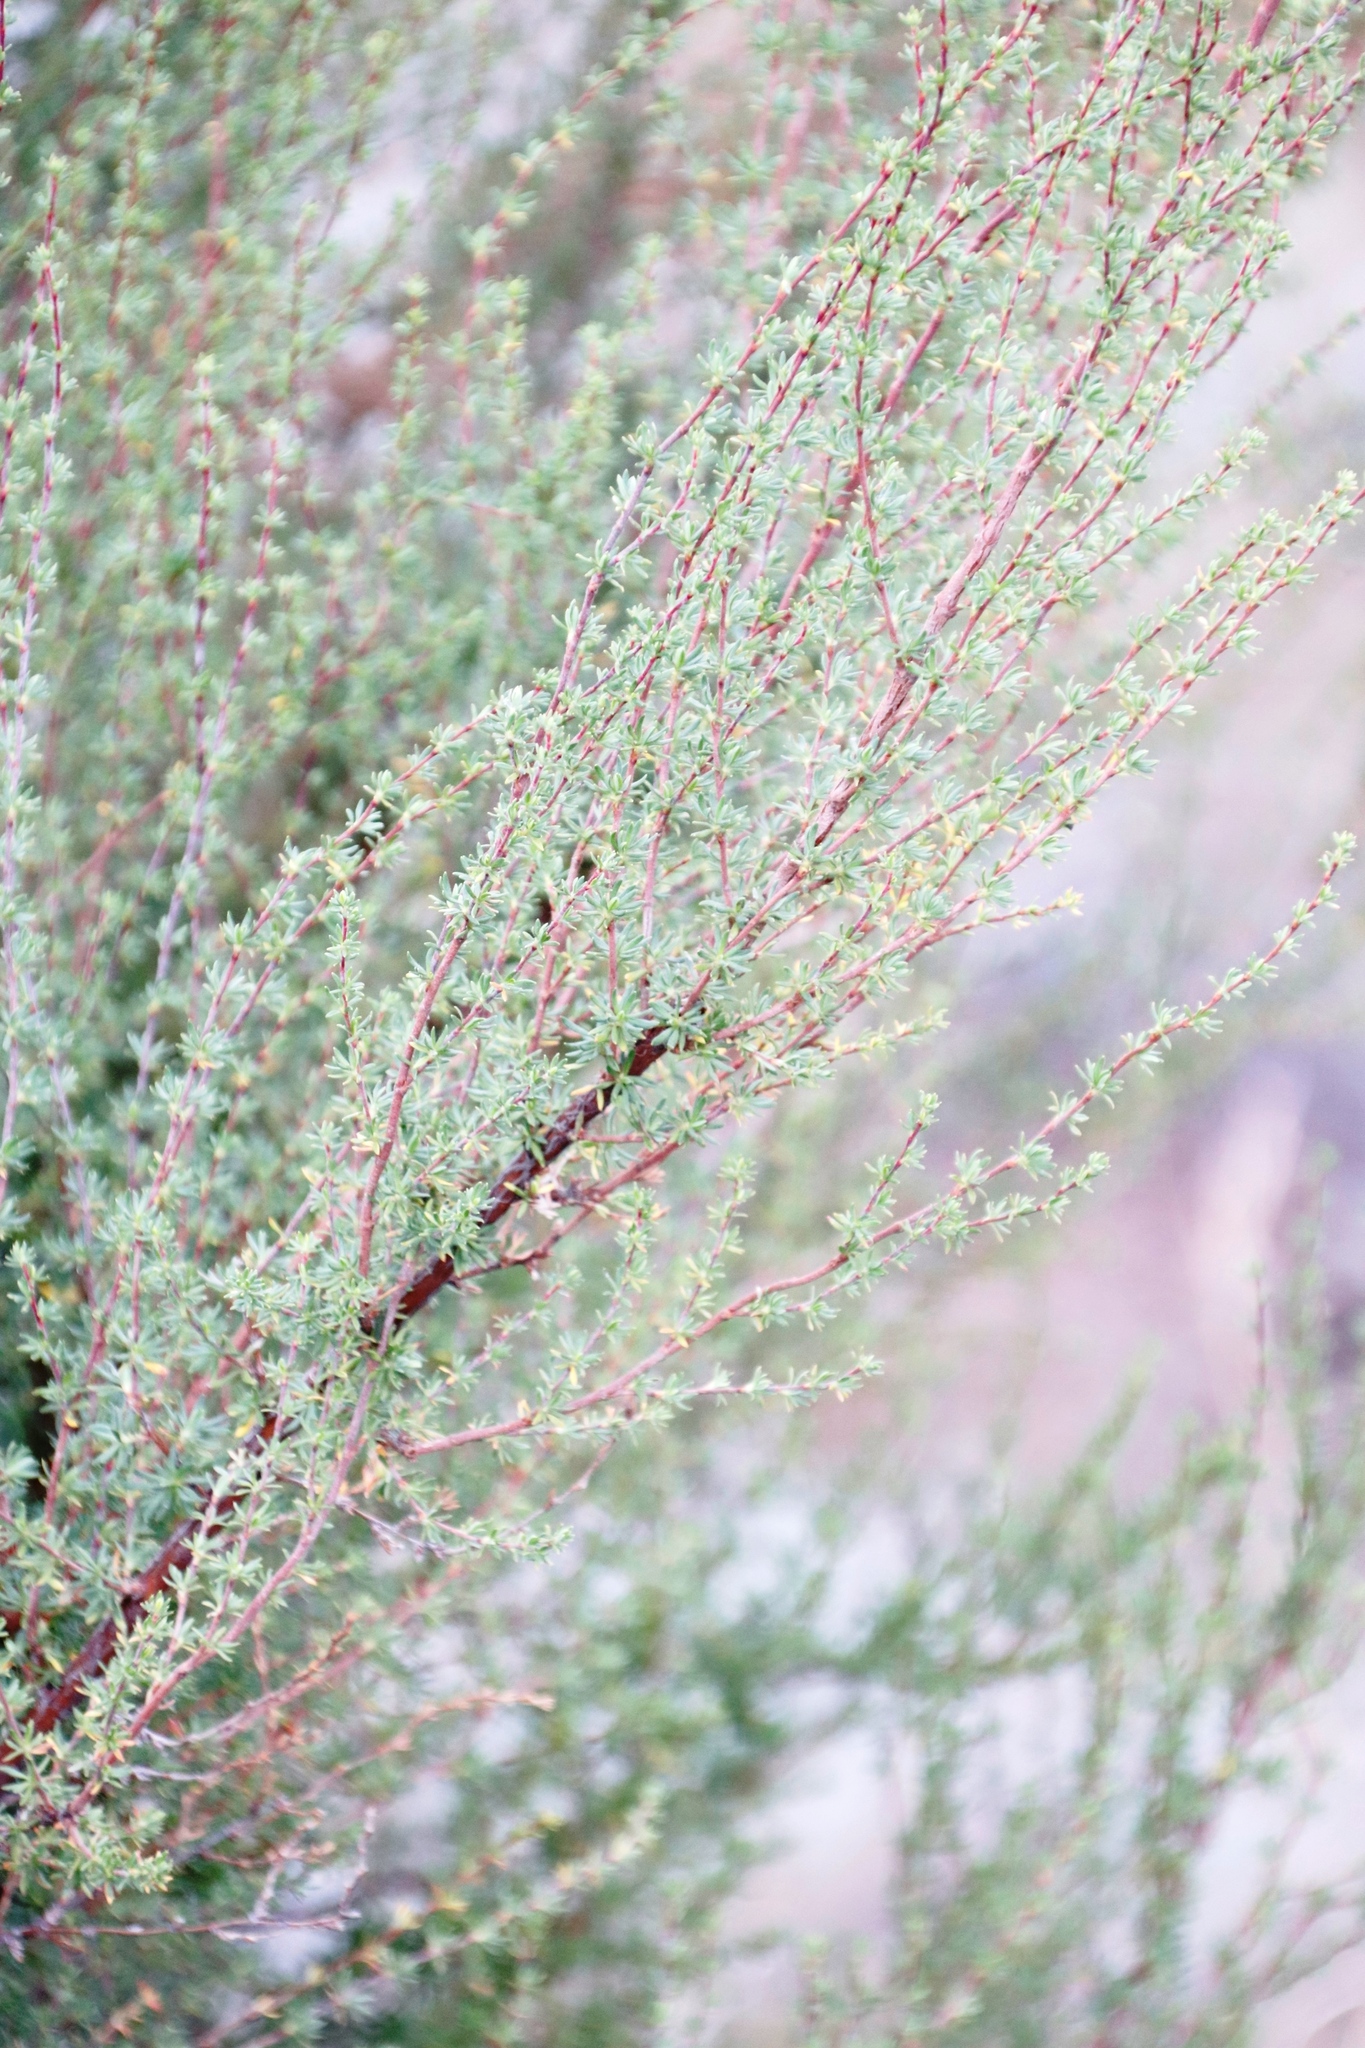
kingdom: Plantae
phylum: Tracheophyta
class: Magnoliopsida
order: Rosales
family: Rosaceae
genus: Cliffortia
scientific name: Cliffortia nitidula
